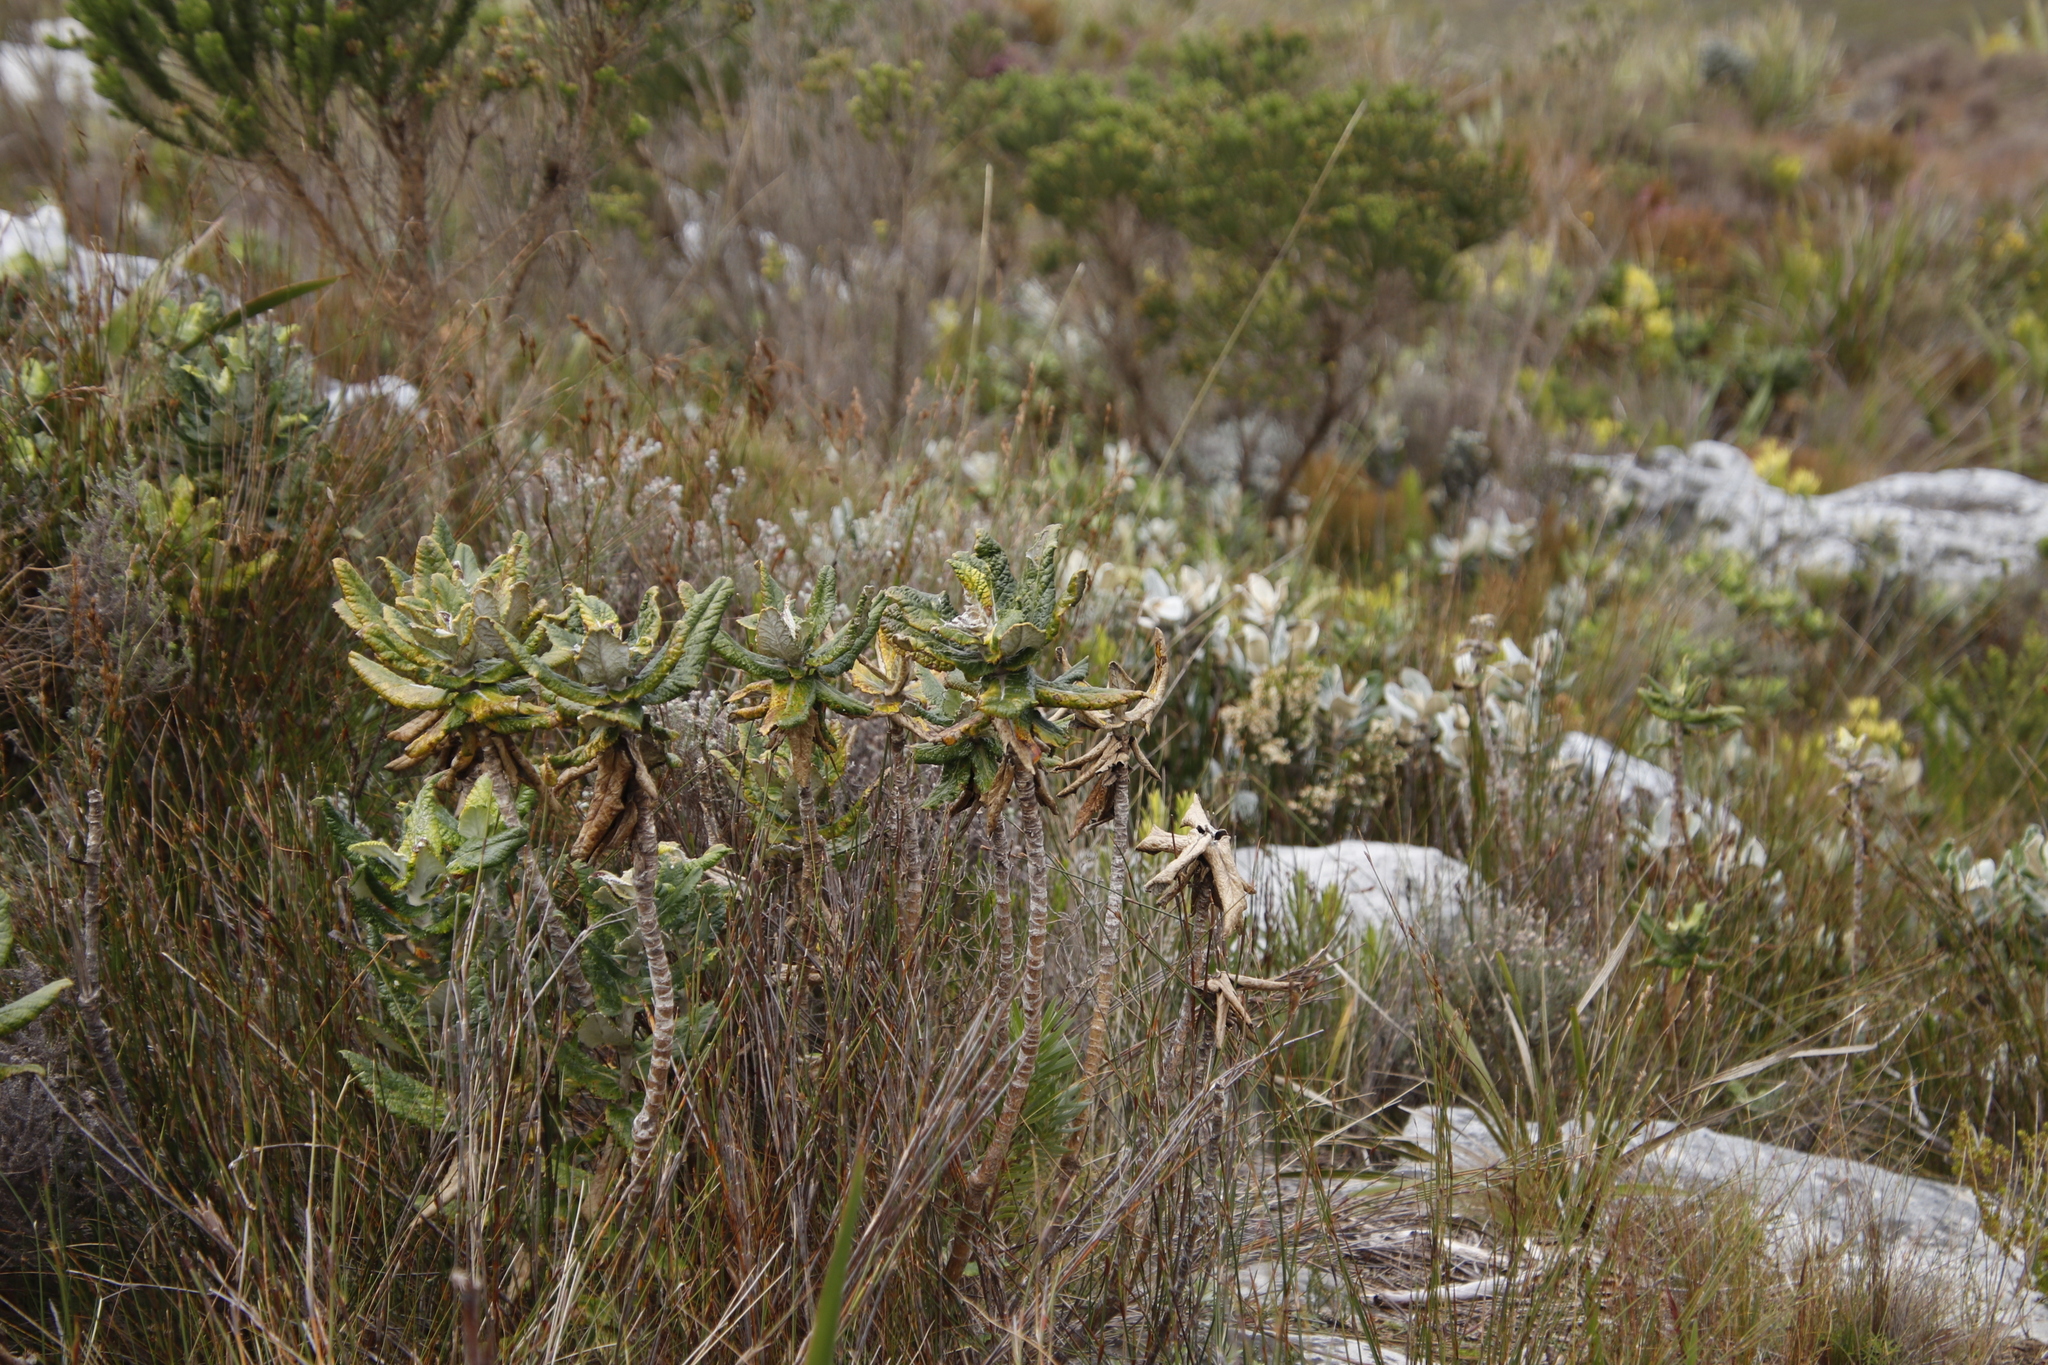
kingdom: Plantae
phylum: Tracheophyta
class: Magnoliopsida
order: Apiales
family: Apiaceae
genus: Hermas
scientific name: Hermas villosa
